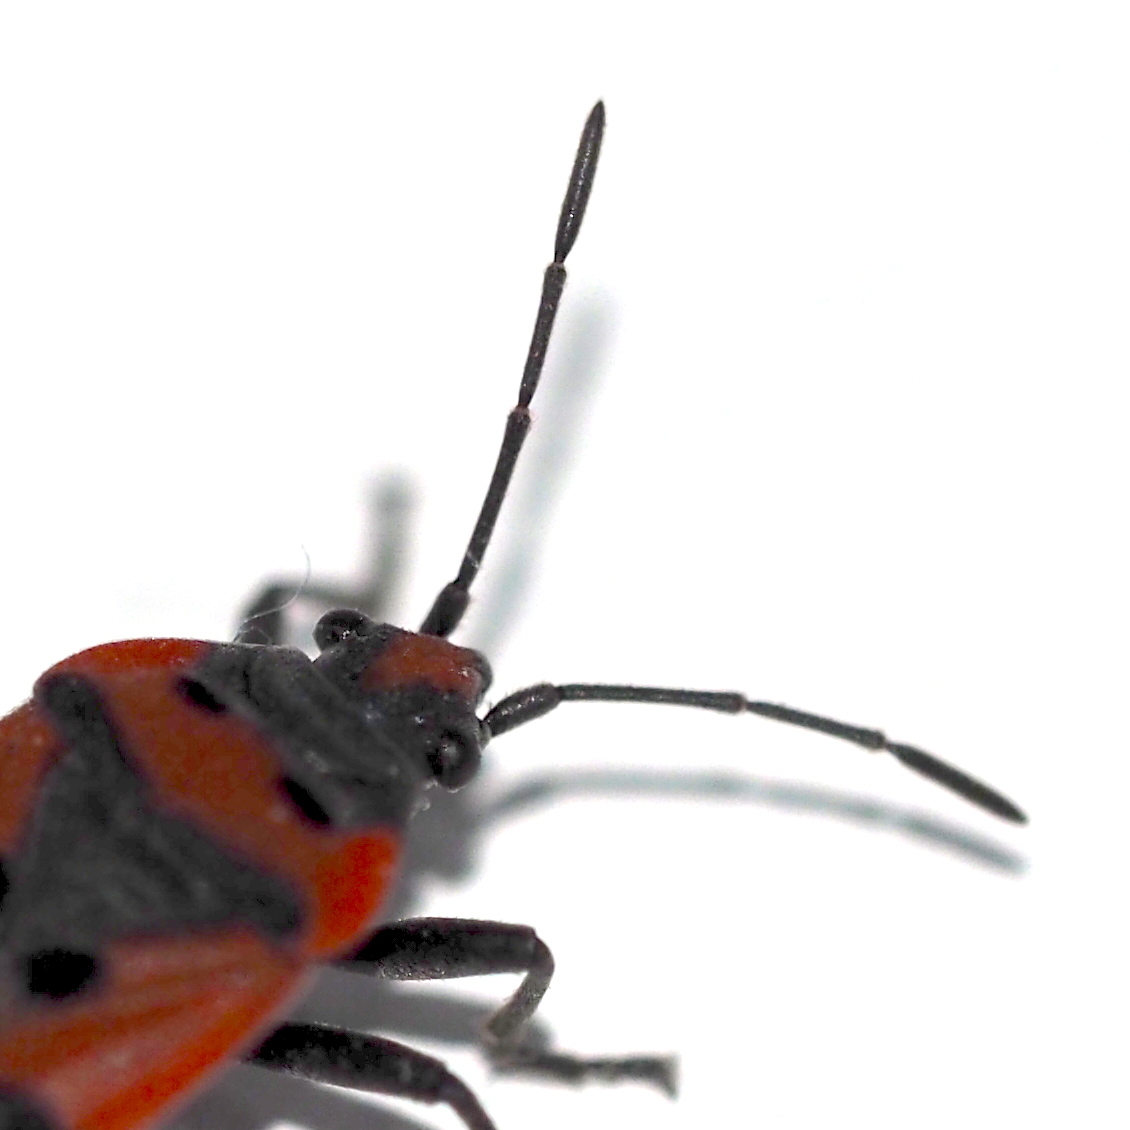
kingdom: Animalia
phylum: Arthropoda
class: Insecta
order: Hemiptera
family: Lygaeidae
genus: Lygaeus
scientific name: Lygaeus equestris
